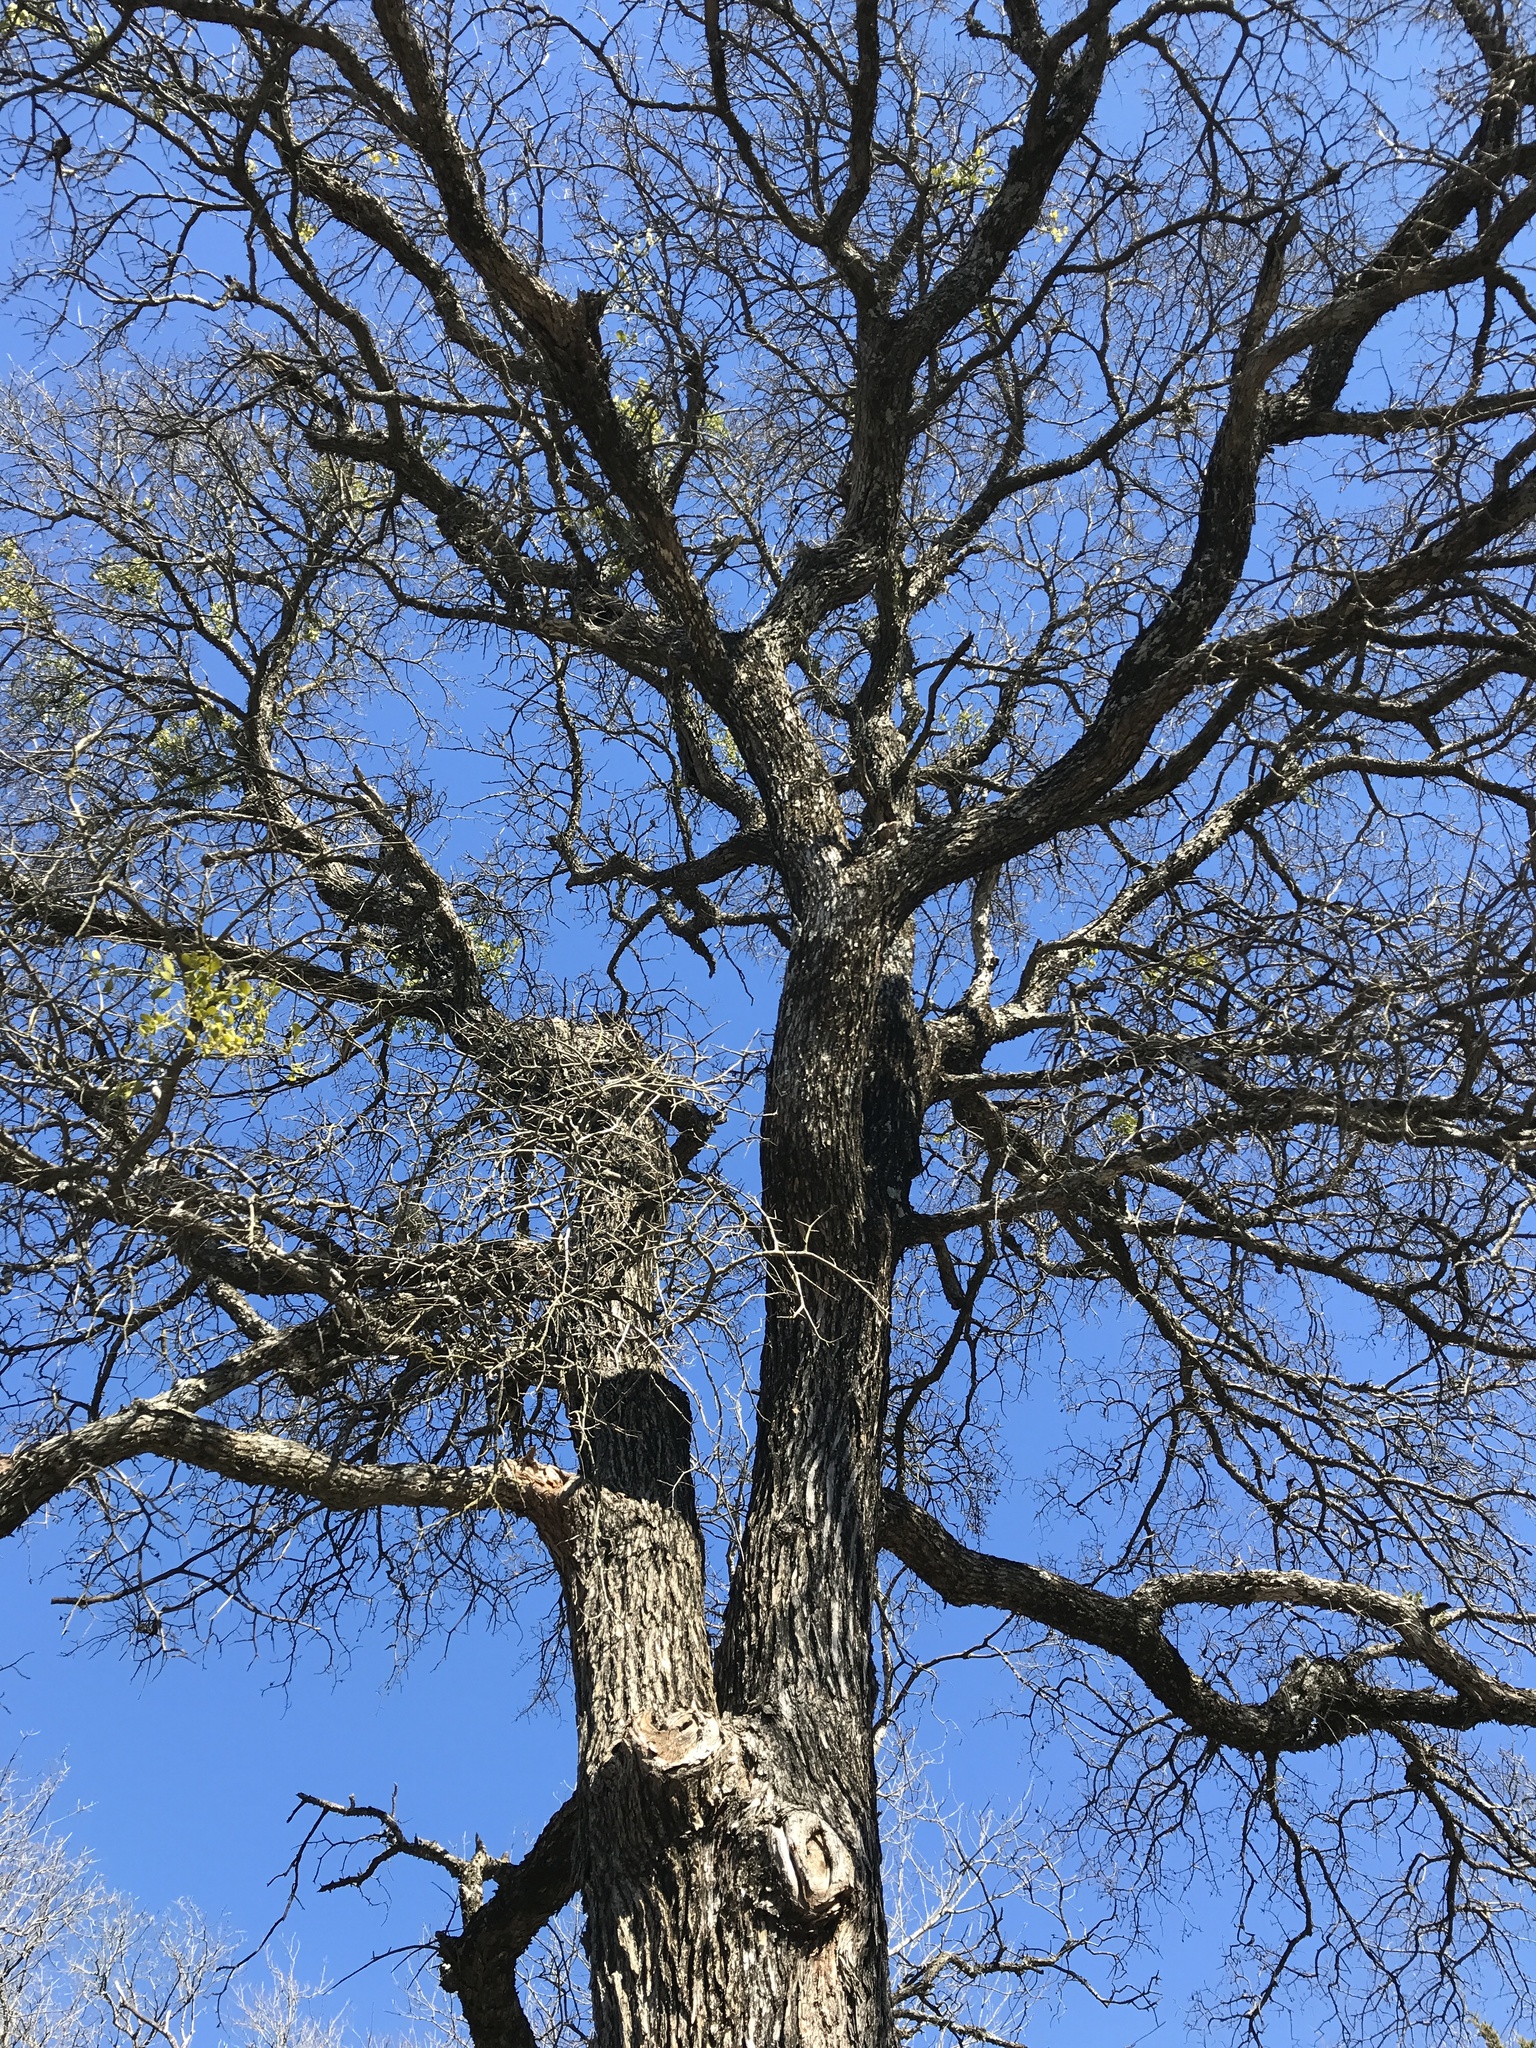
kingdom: Plantae
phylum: Tracheophyta
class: Magnoliopsida
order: Rosales
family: Ulmaceae
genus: Ulmus
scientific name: Ulmus crassifolia
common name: Basket elm
